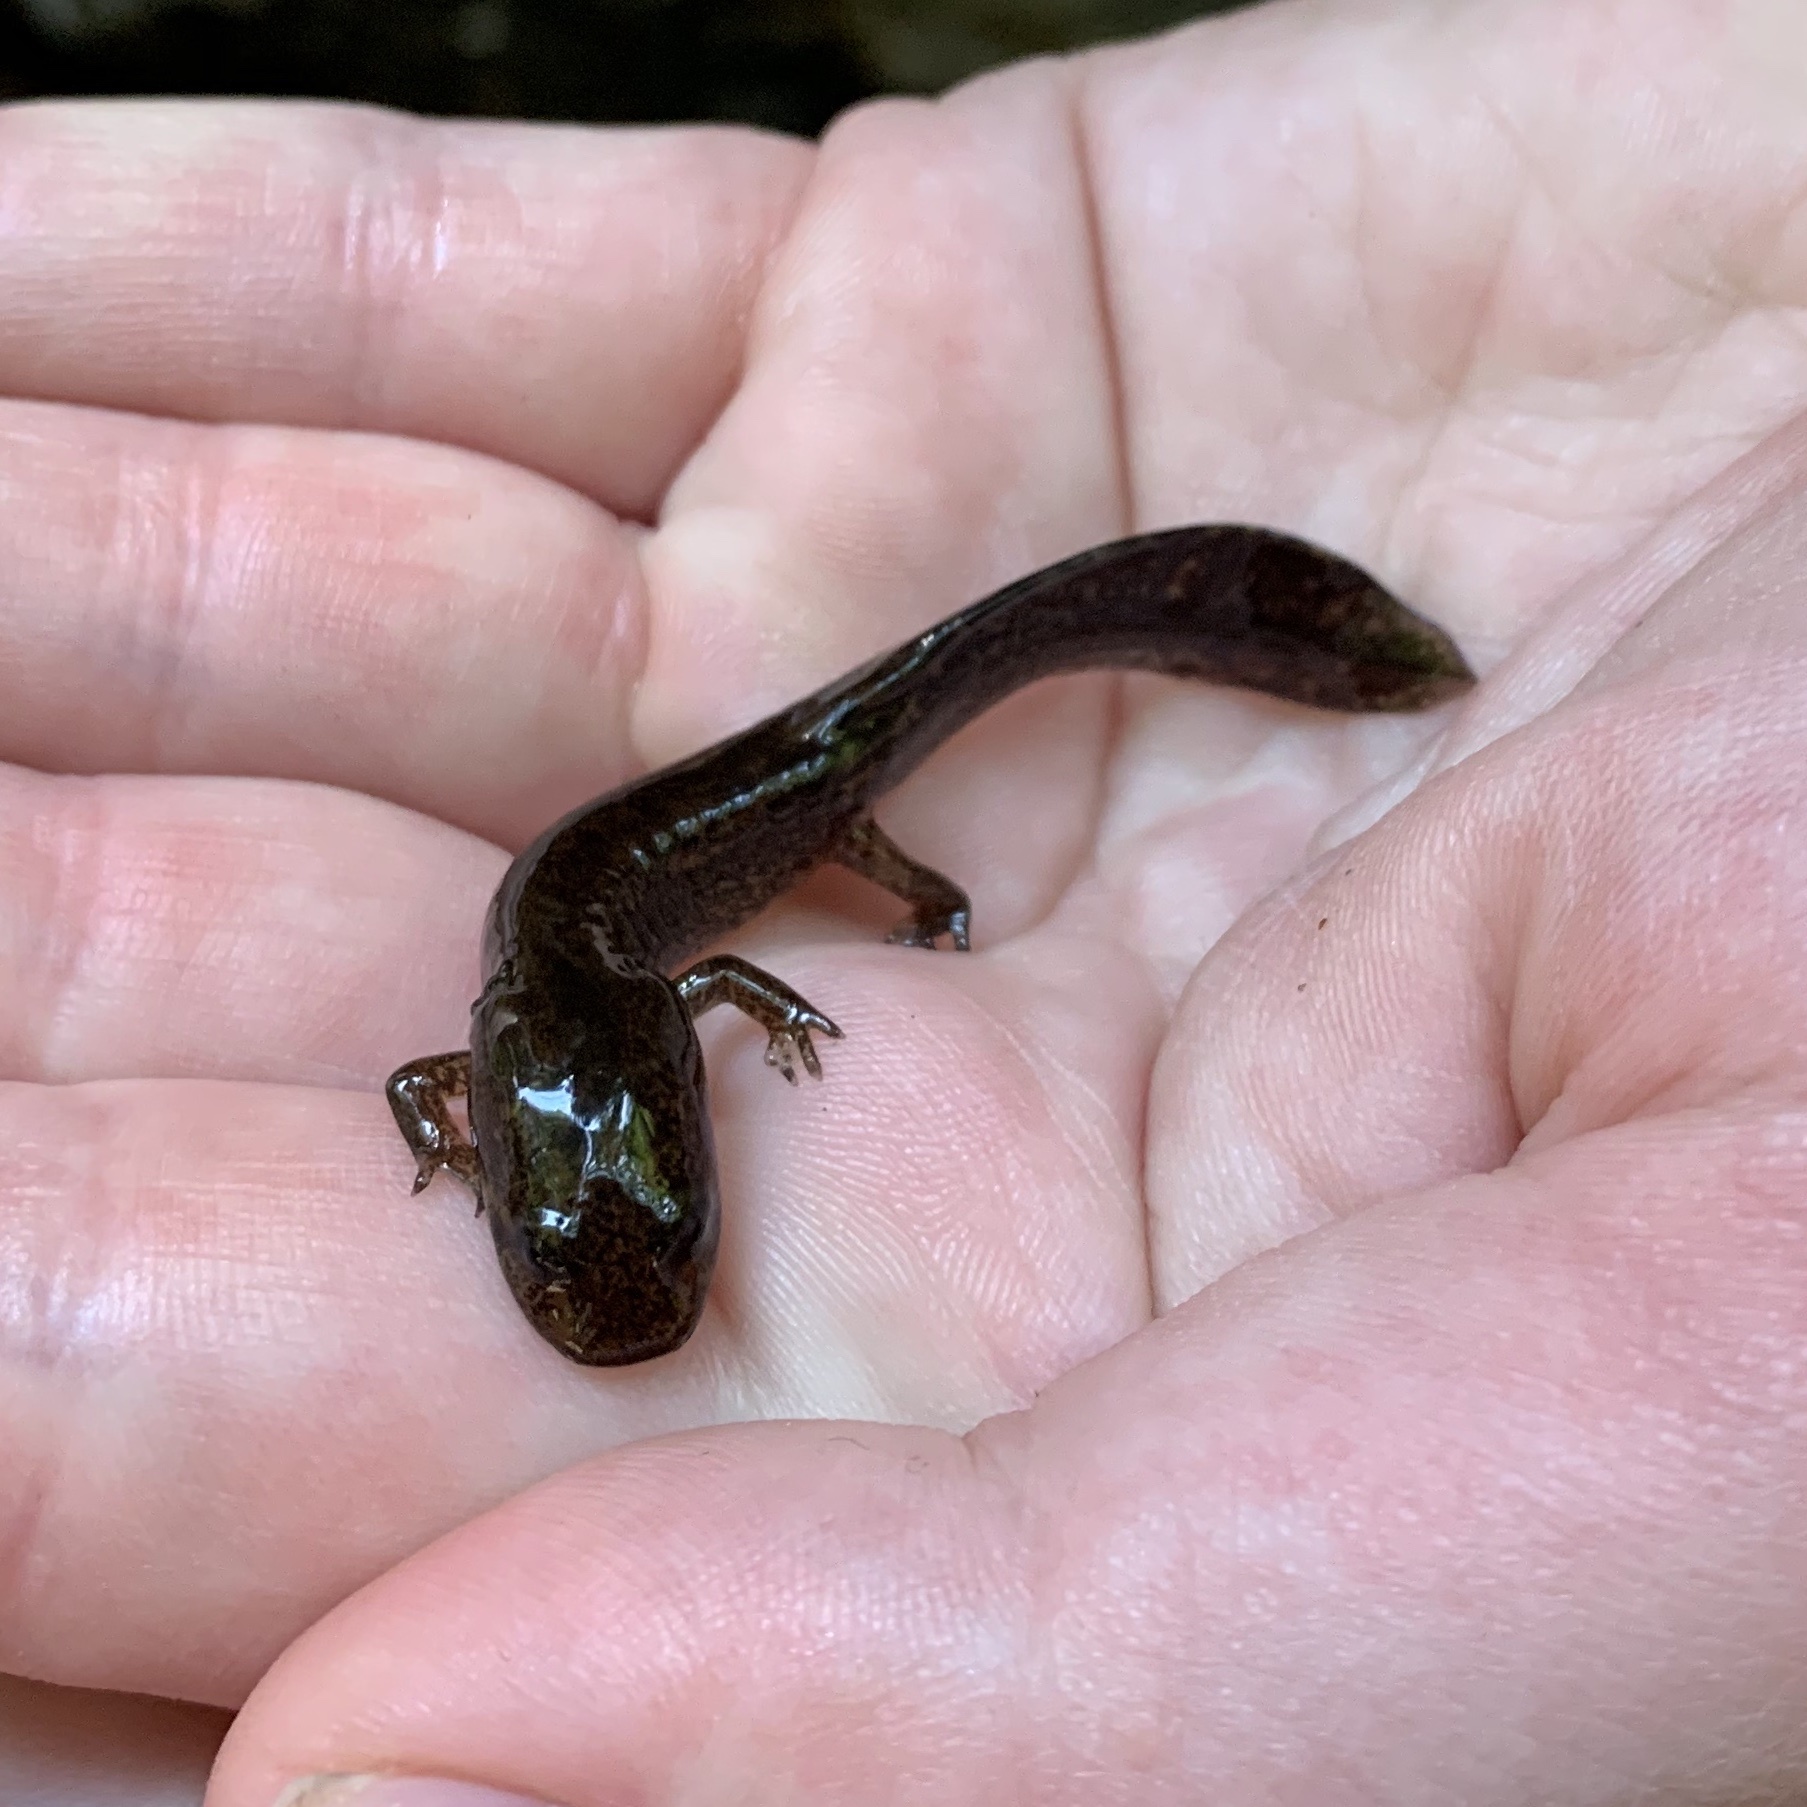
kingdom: Animalia
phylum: Chordata
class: Amphibia
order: Caudata
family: Ambystomatidae
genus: Dicamptodon
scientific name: Dicamptodon ensatus
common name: California giant salamander
